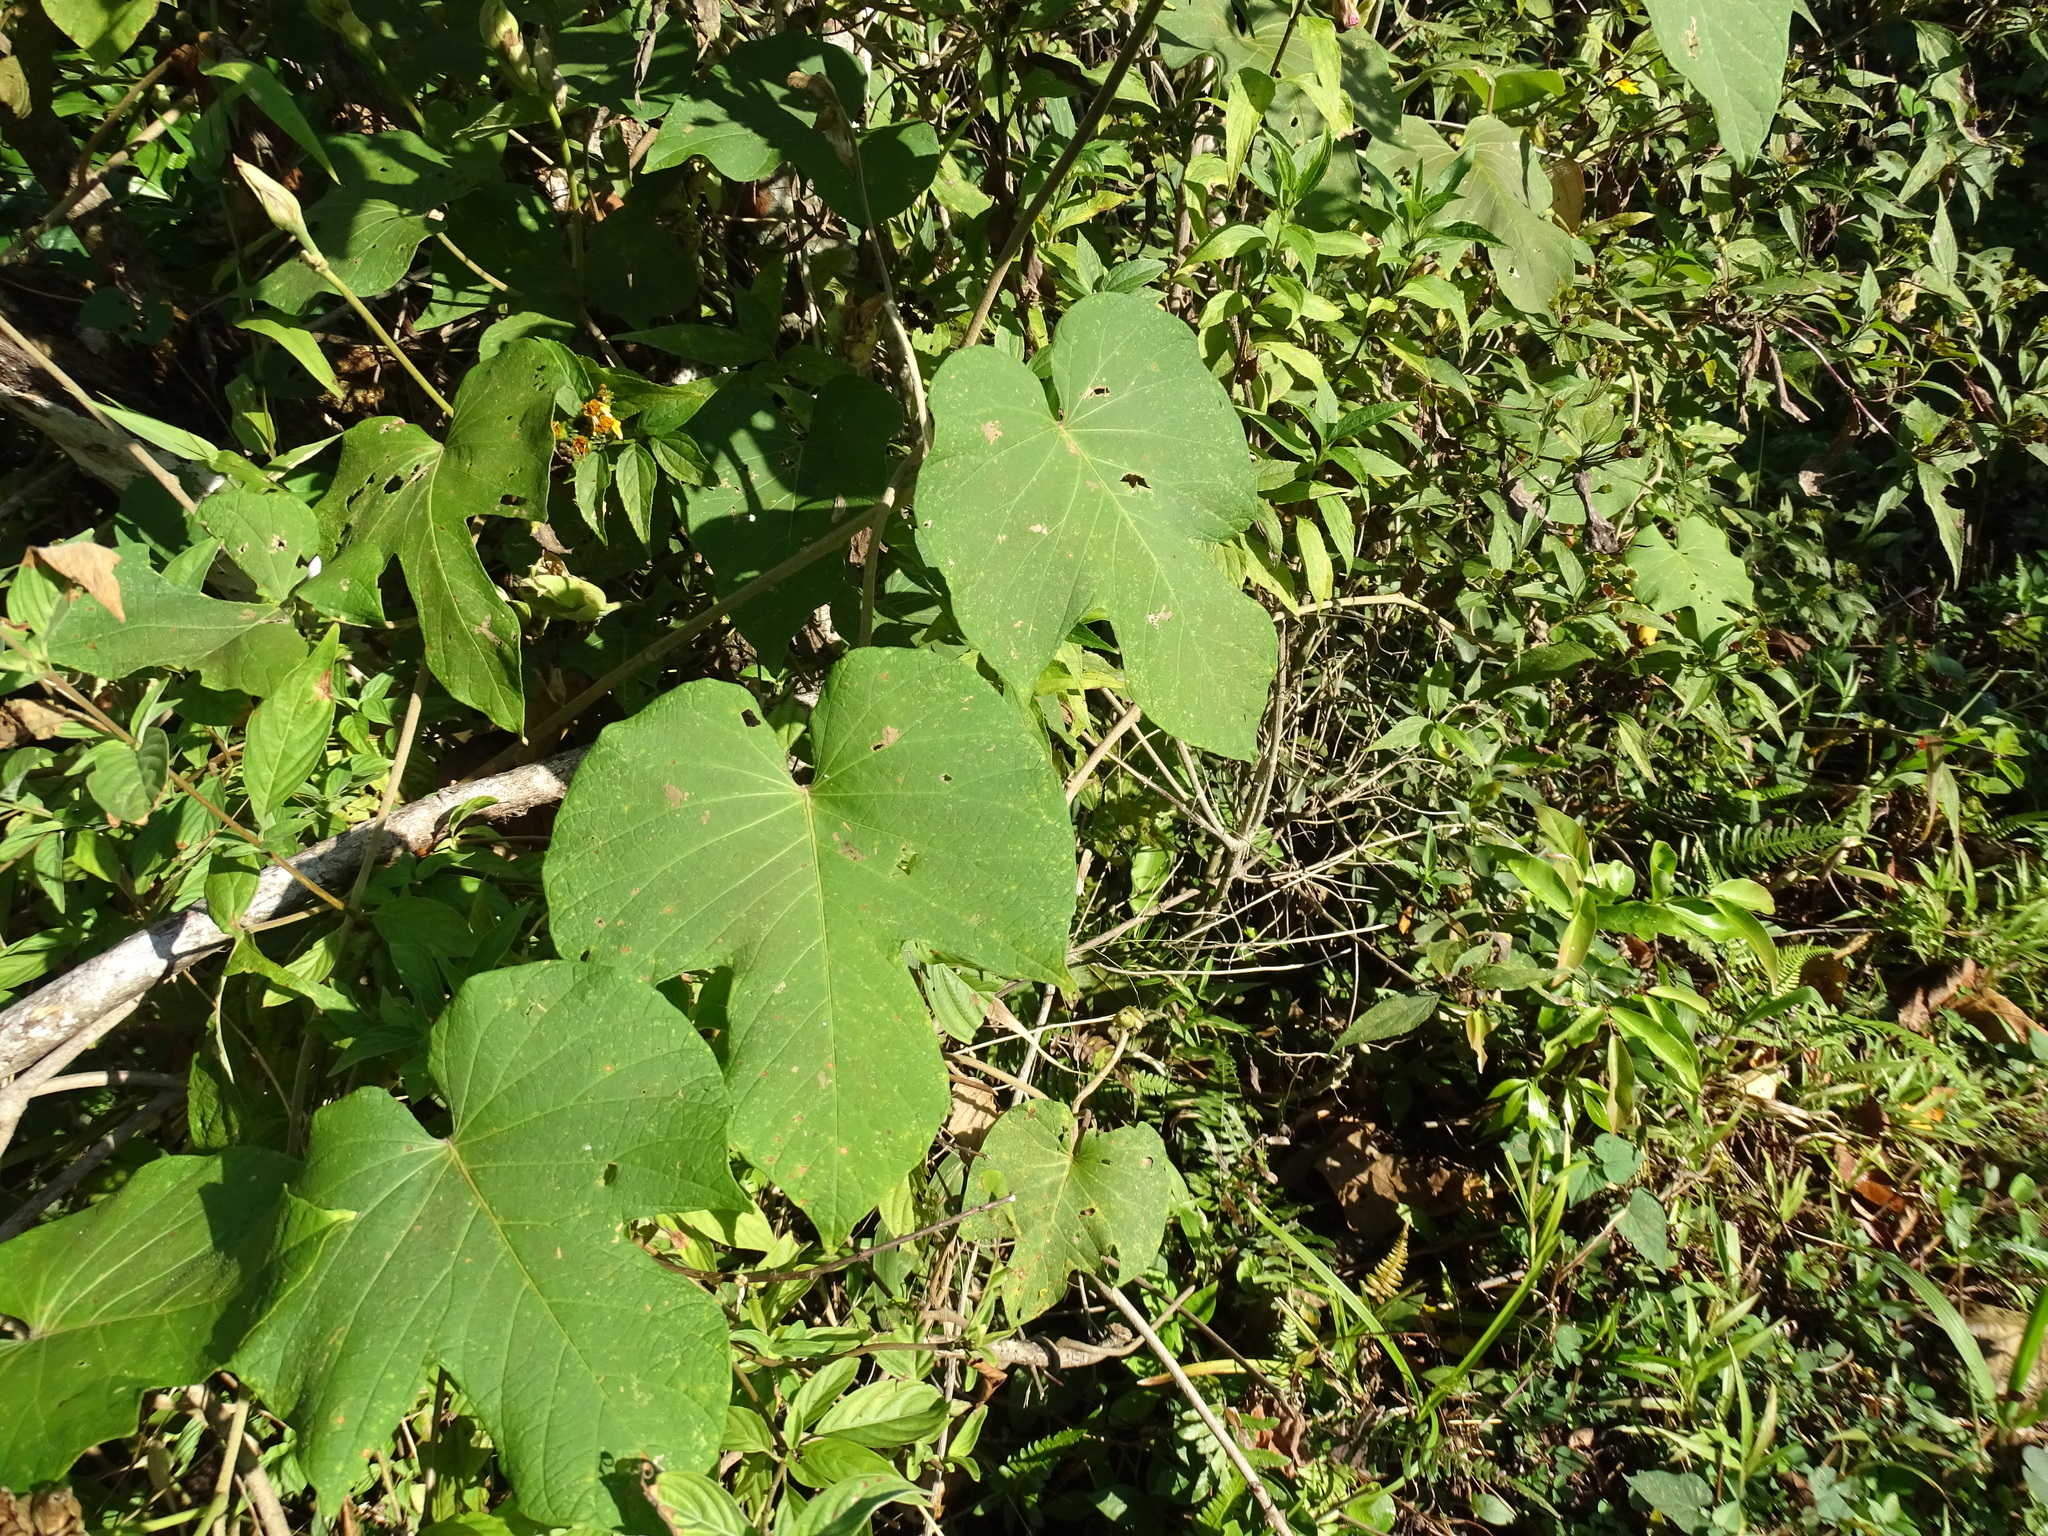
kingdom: Plantae
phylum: Tracheophyta
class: Magnoliopsida
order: Solanales
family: Convolvulaceae
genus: Ipomoea
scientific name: Ipomoea mairetii
